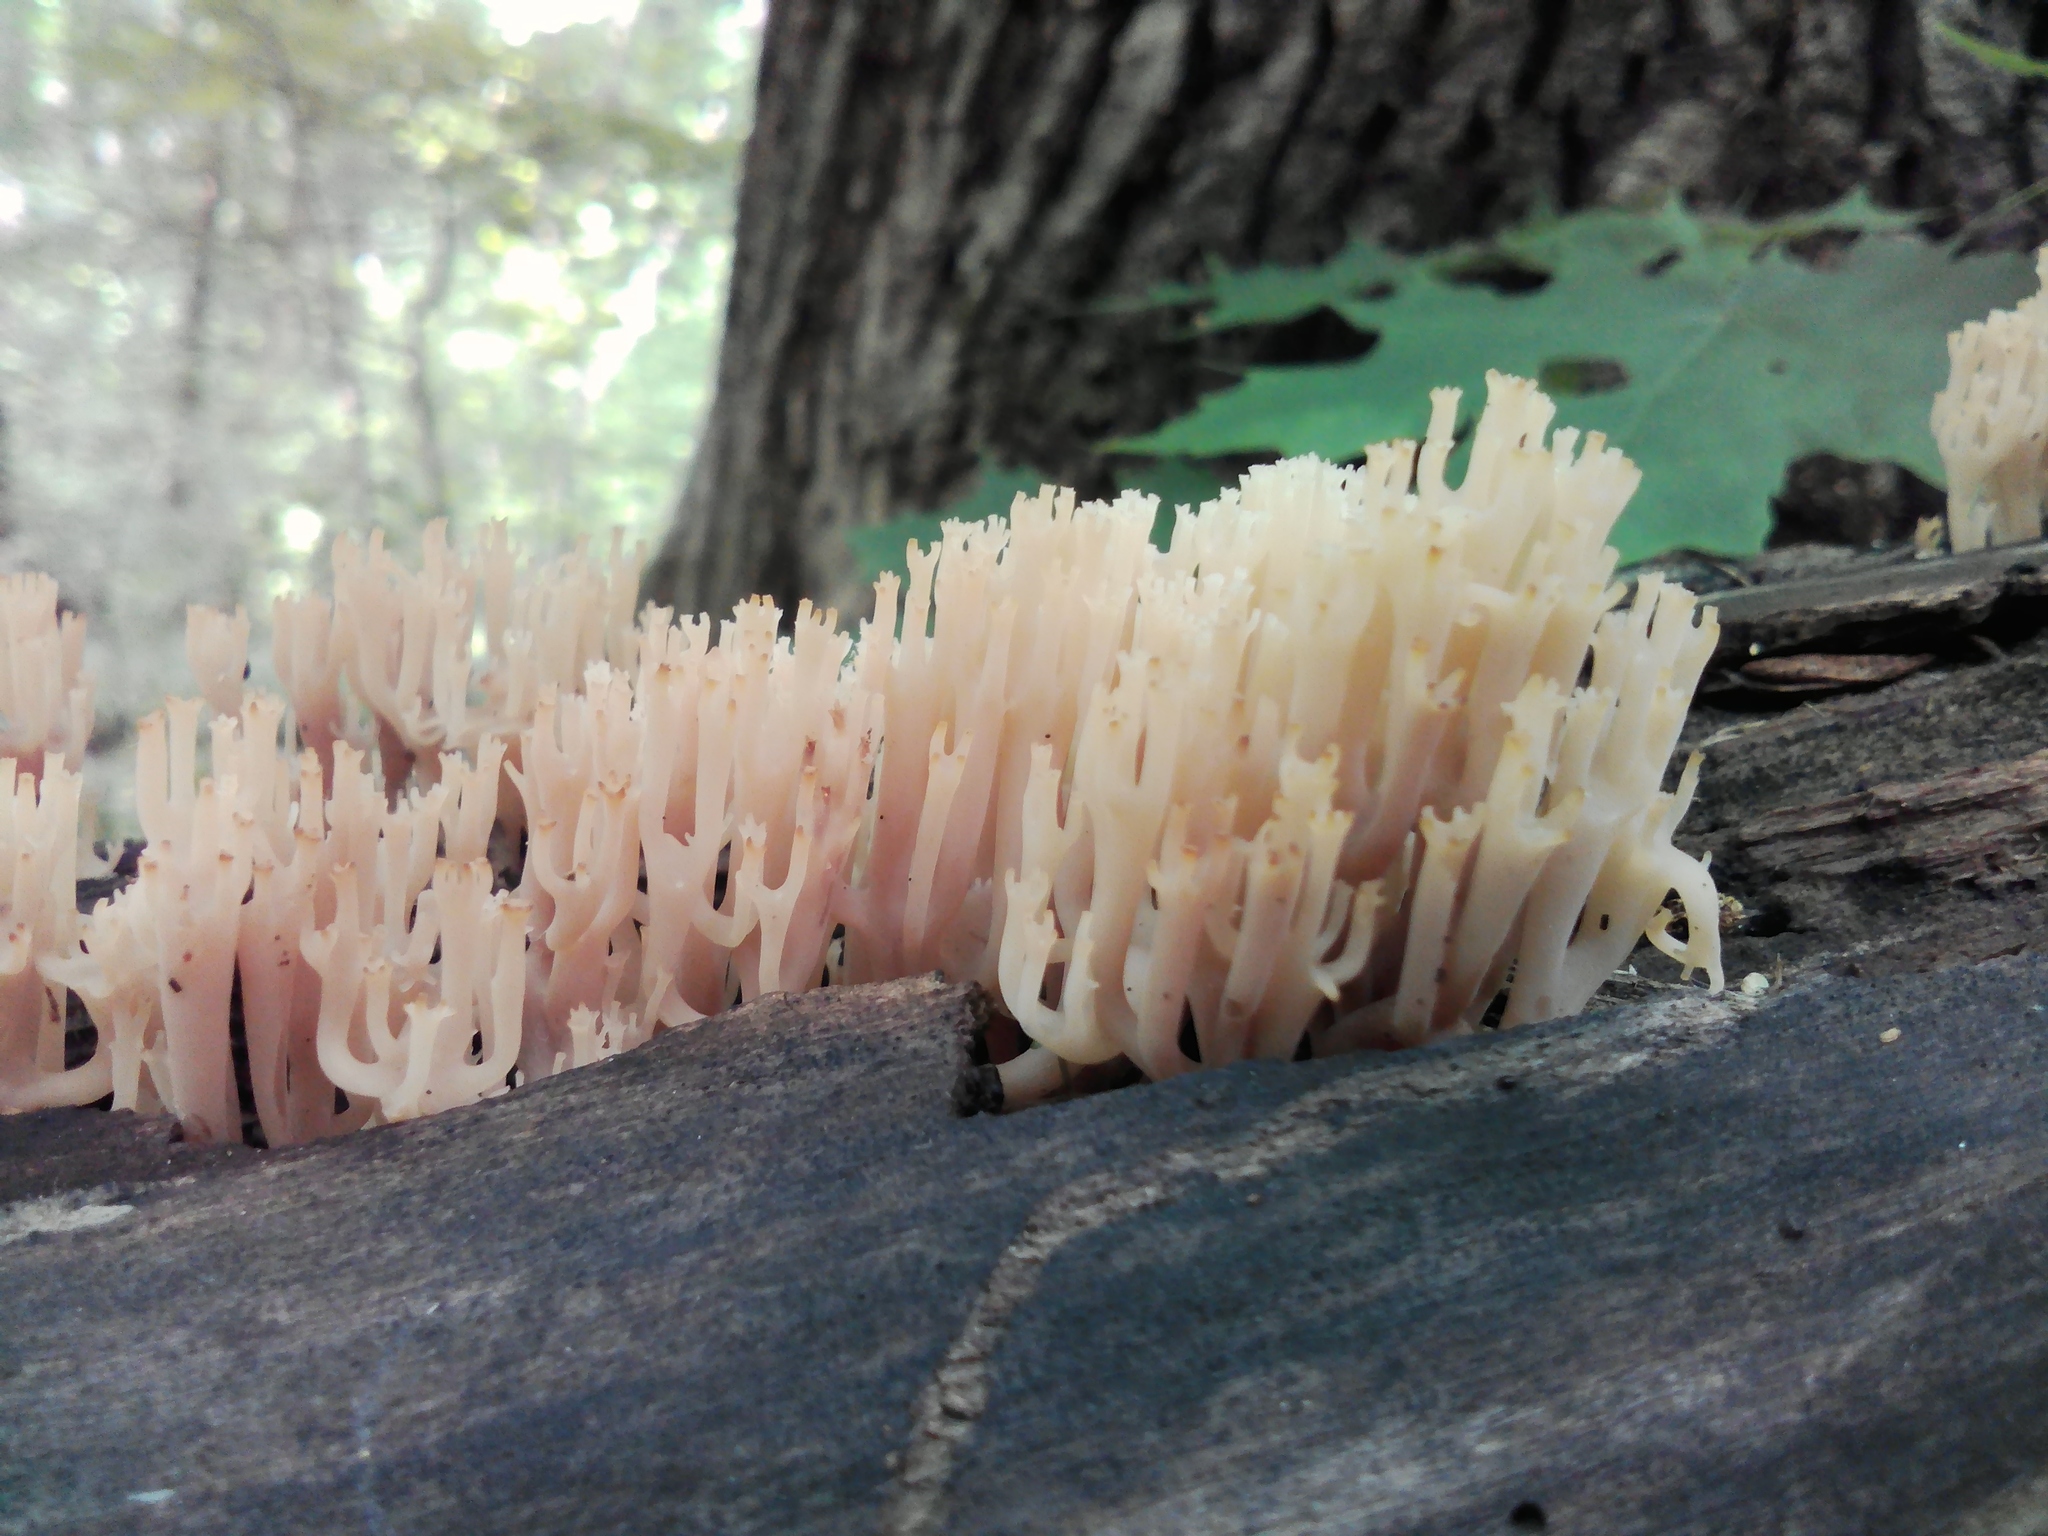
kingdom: Fungi
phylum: Basidiomycota
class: Agaricomycetes
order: Russulales
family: Auriscalpiaceae
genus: Artomyces
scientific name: Artomyces pyxidatus
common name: Crown-tipped coral fungus
